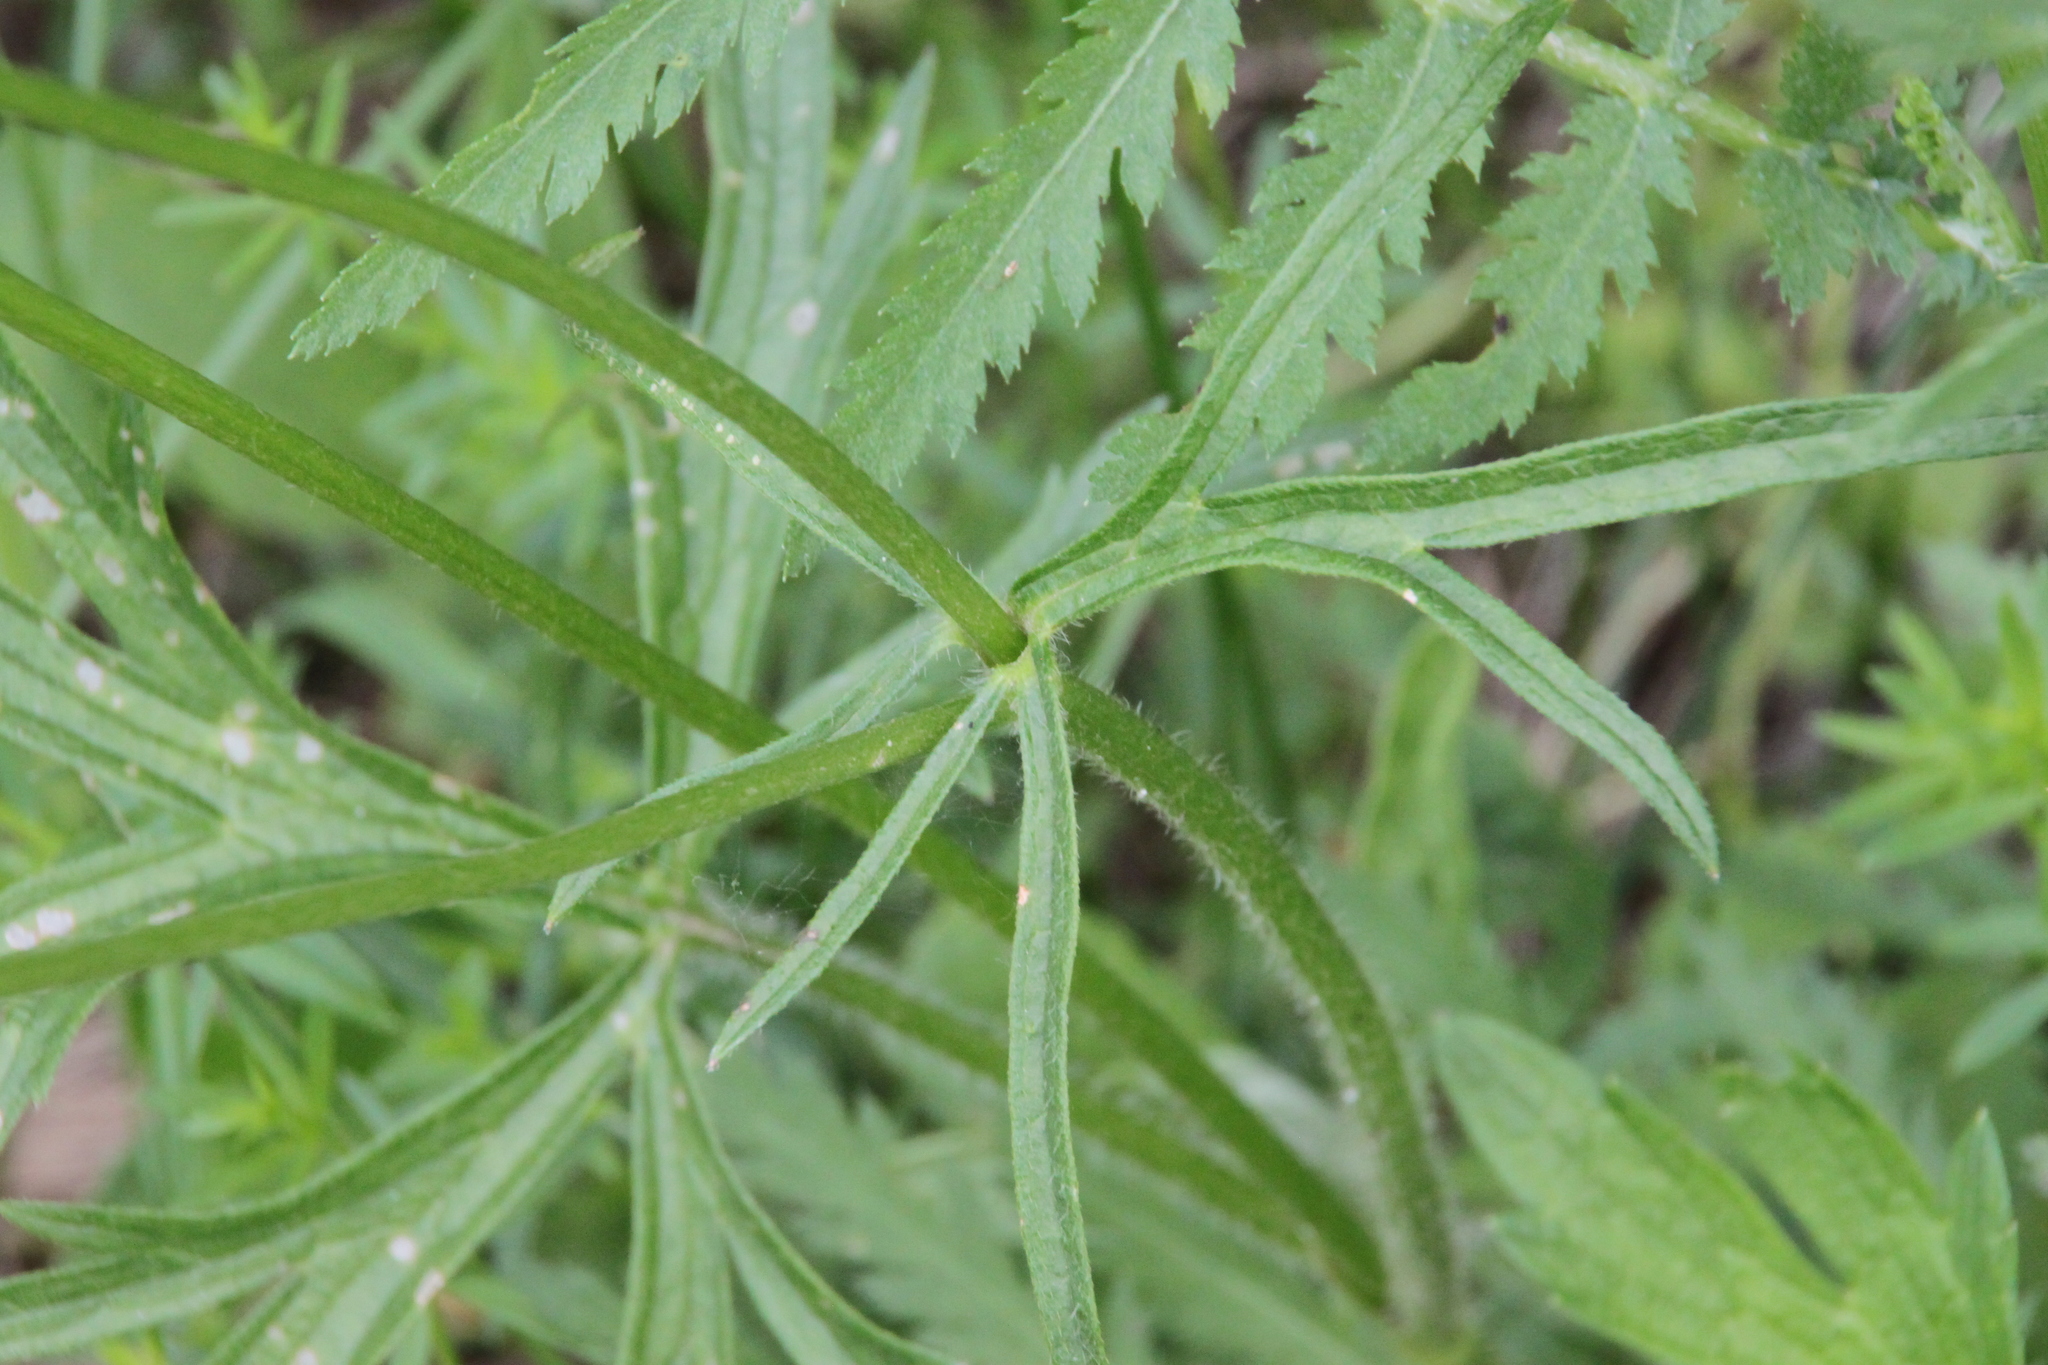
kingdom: Plantae
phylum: Tracheophyta
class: Magnoliopsida
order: Ranunculales
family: Ranunculaceae
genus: Ranunculus
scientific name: Ranunculus polyanthemos
